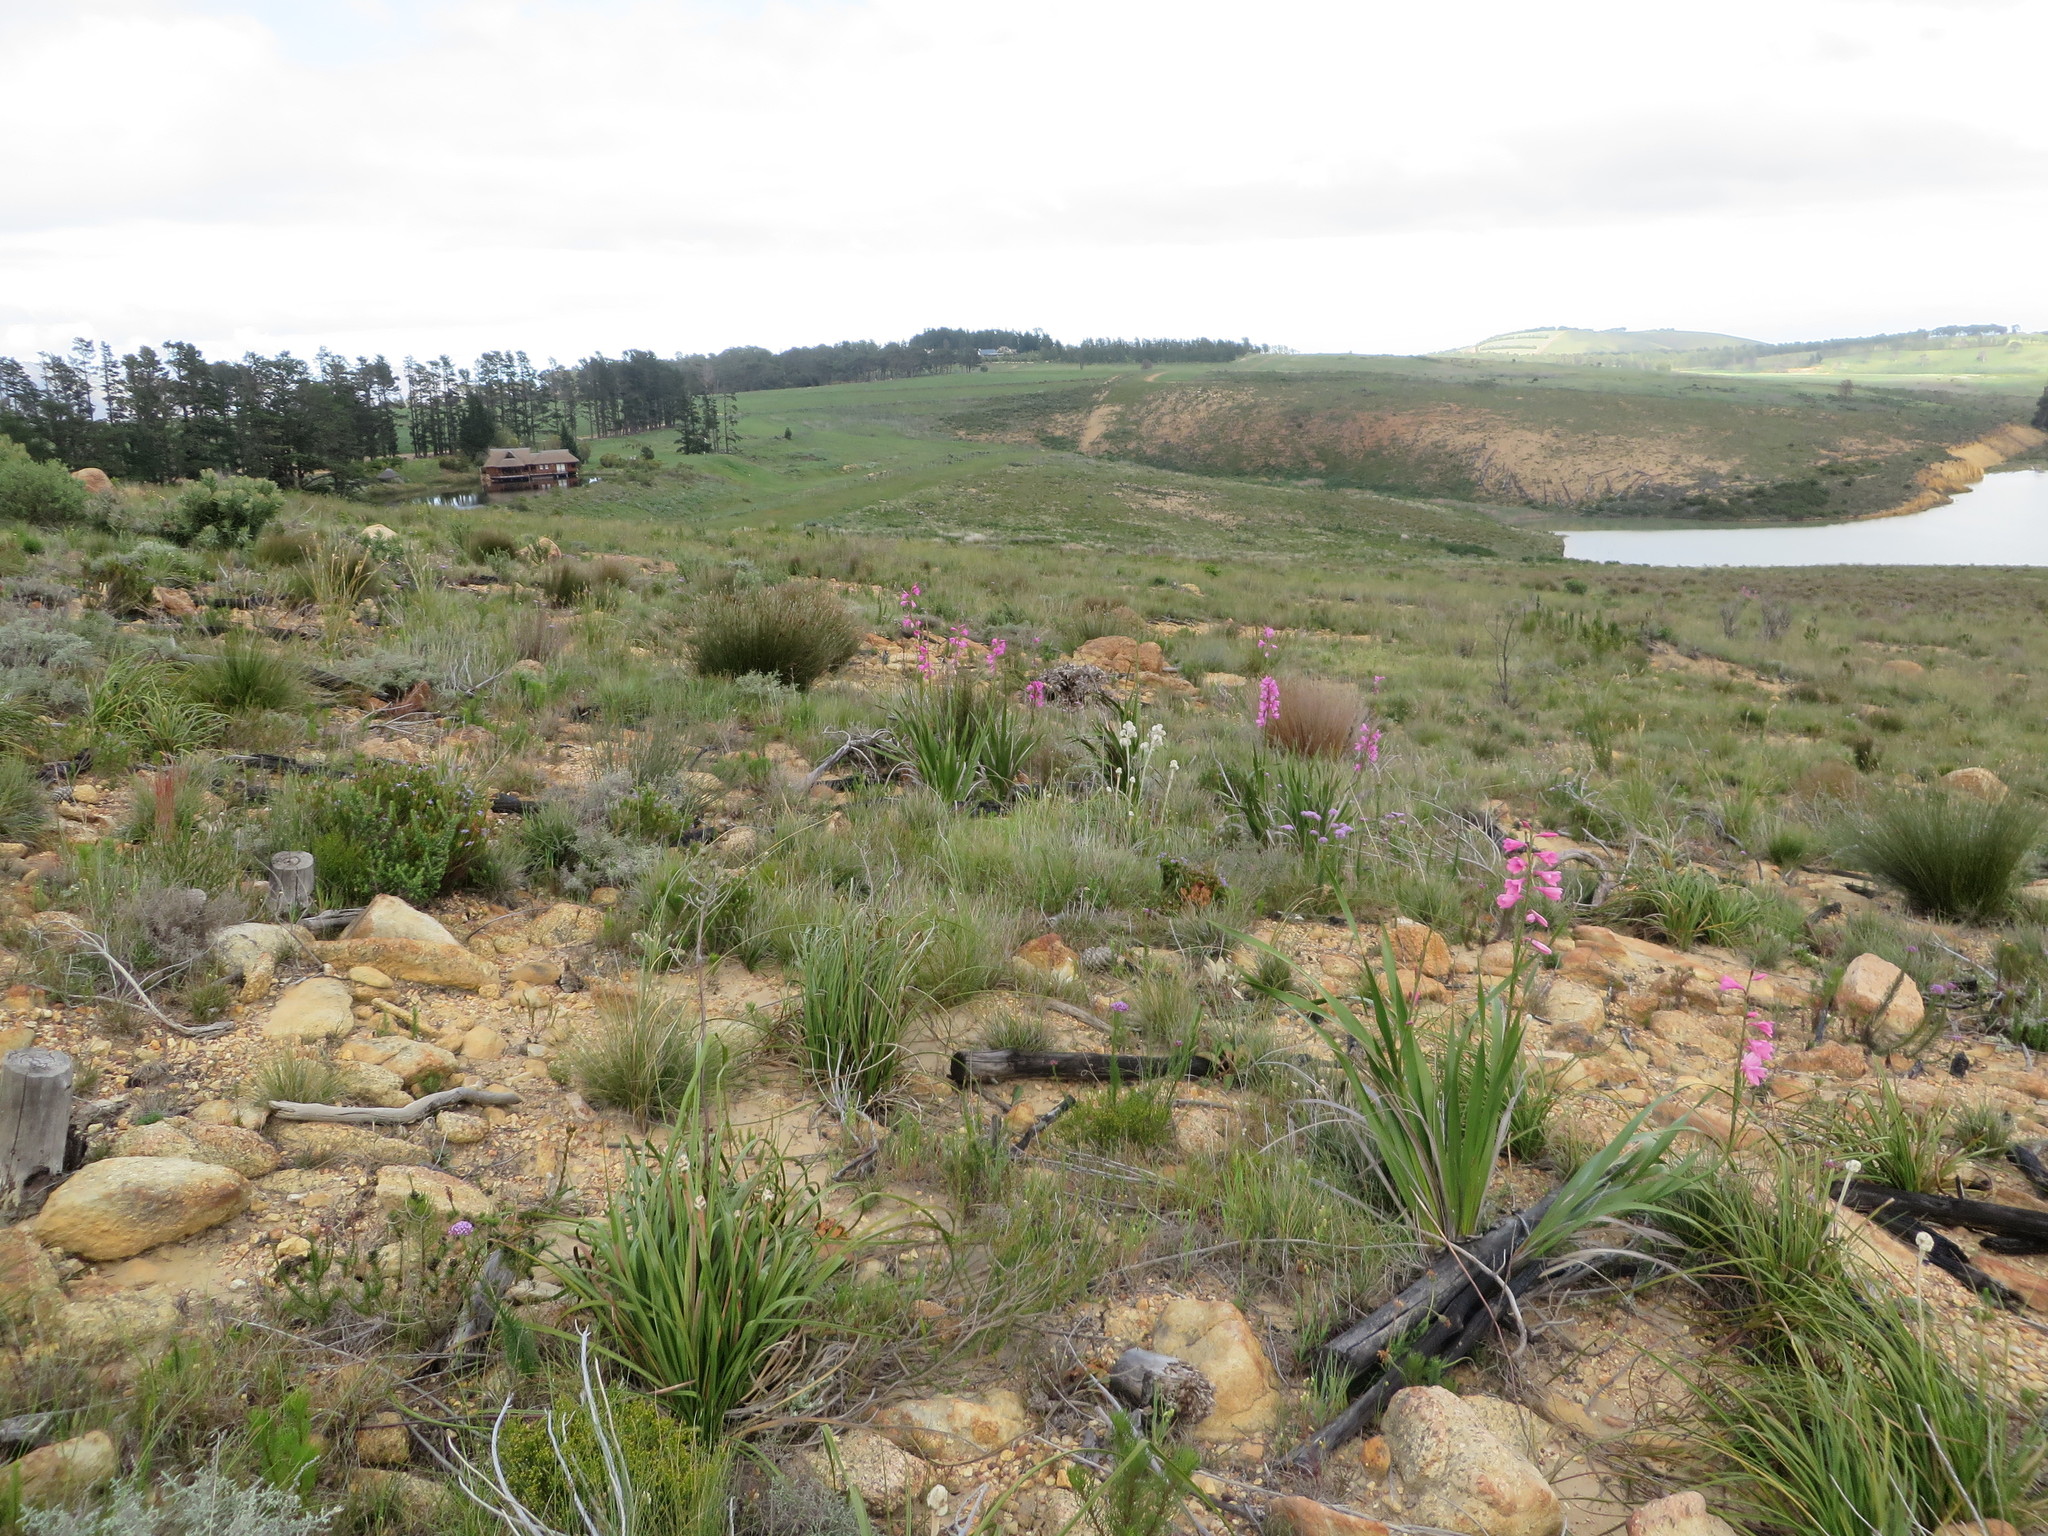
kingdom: Plantae
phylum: Tracheophyta
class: Liliopsida
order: Asparagales
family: Lanariaceae
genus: Lanaria
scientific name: Lanaria lanata
